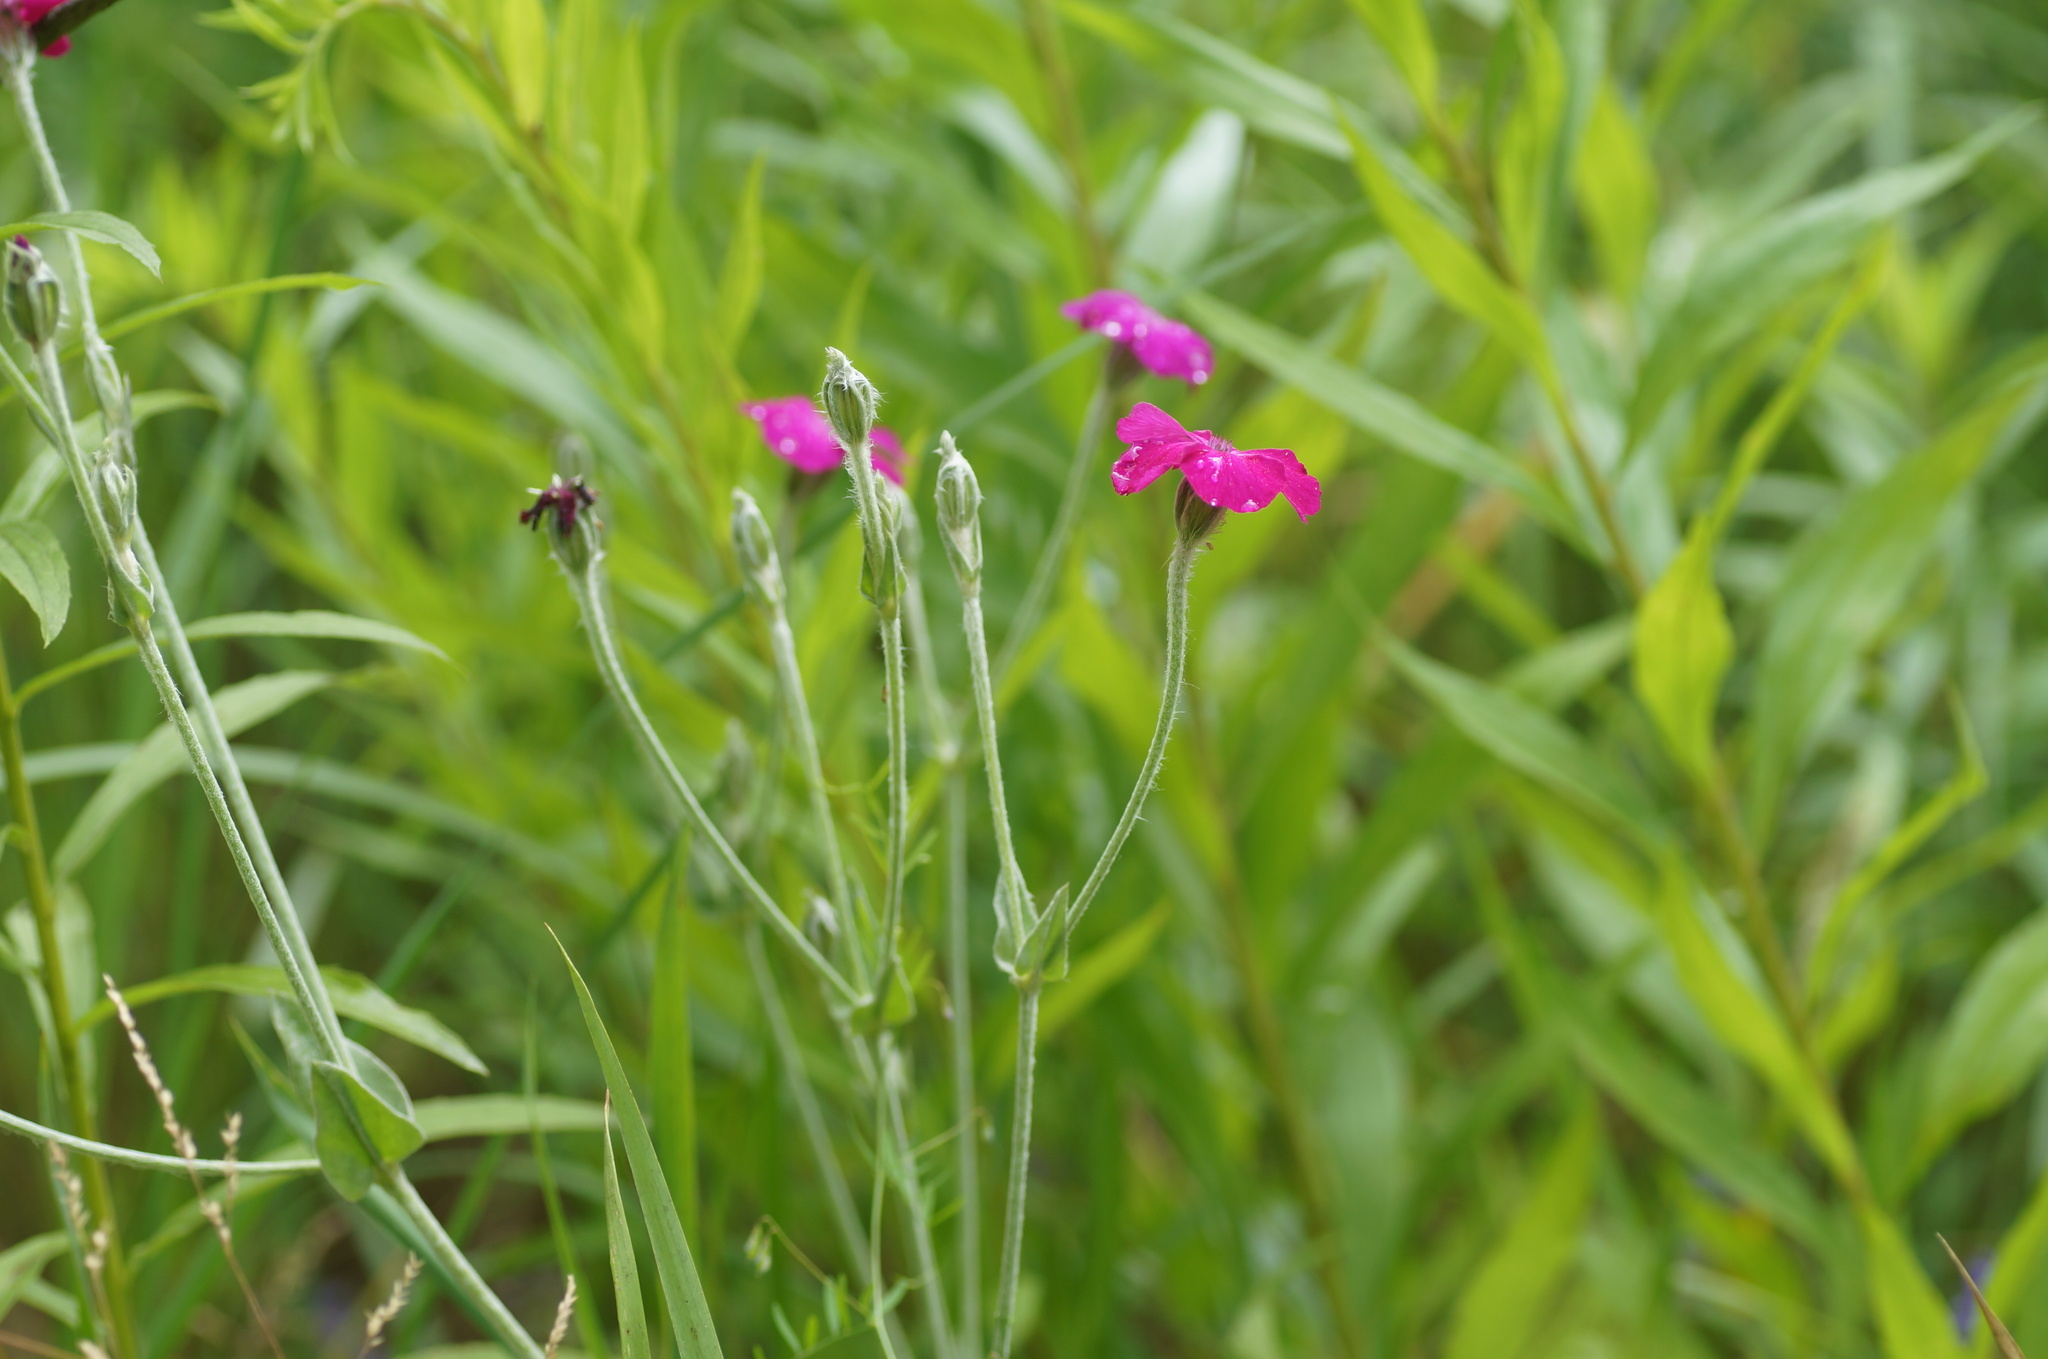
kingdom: Plantae
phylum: Tracheophyta
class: Magnoliopsida
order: Caryophyllales
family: Caryophyllaceae
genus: Silene
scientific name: Silene coronaria
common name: Rose campion
